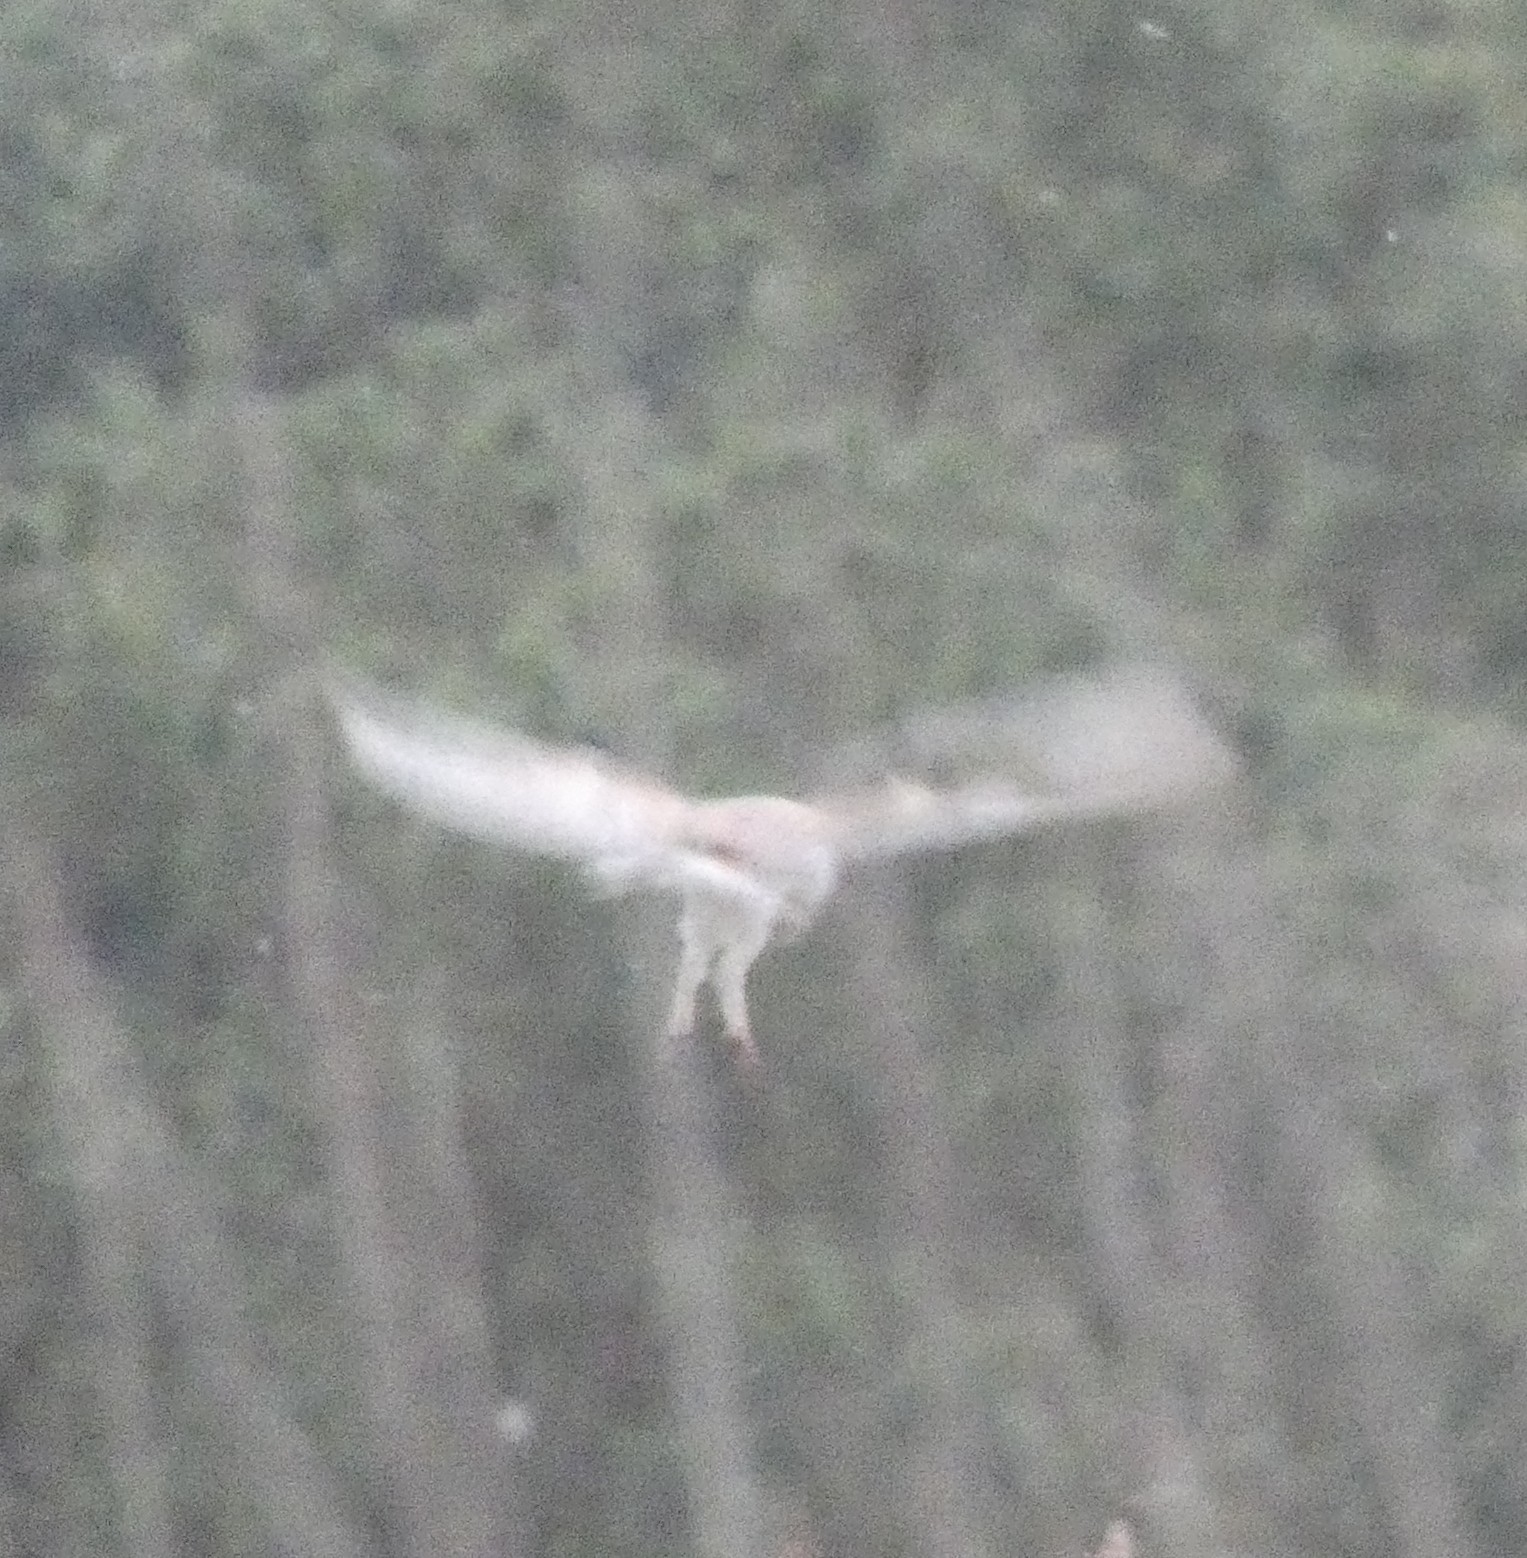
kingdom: Animalia
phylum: Chordata
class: Aves
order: Strigiformes
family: Tytonidae
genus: Tyto
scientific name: Tyto alba
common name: Barn owl
